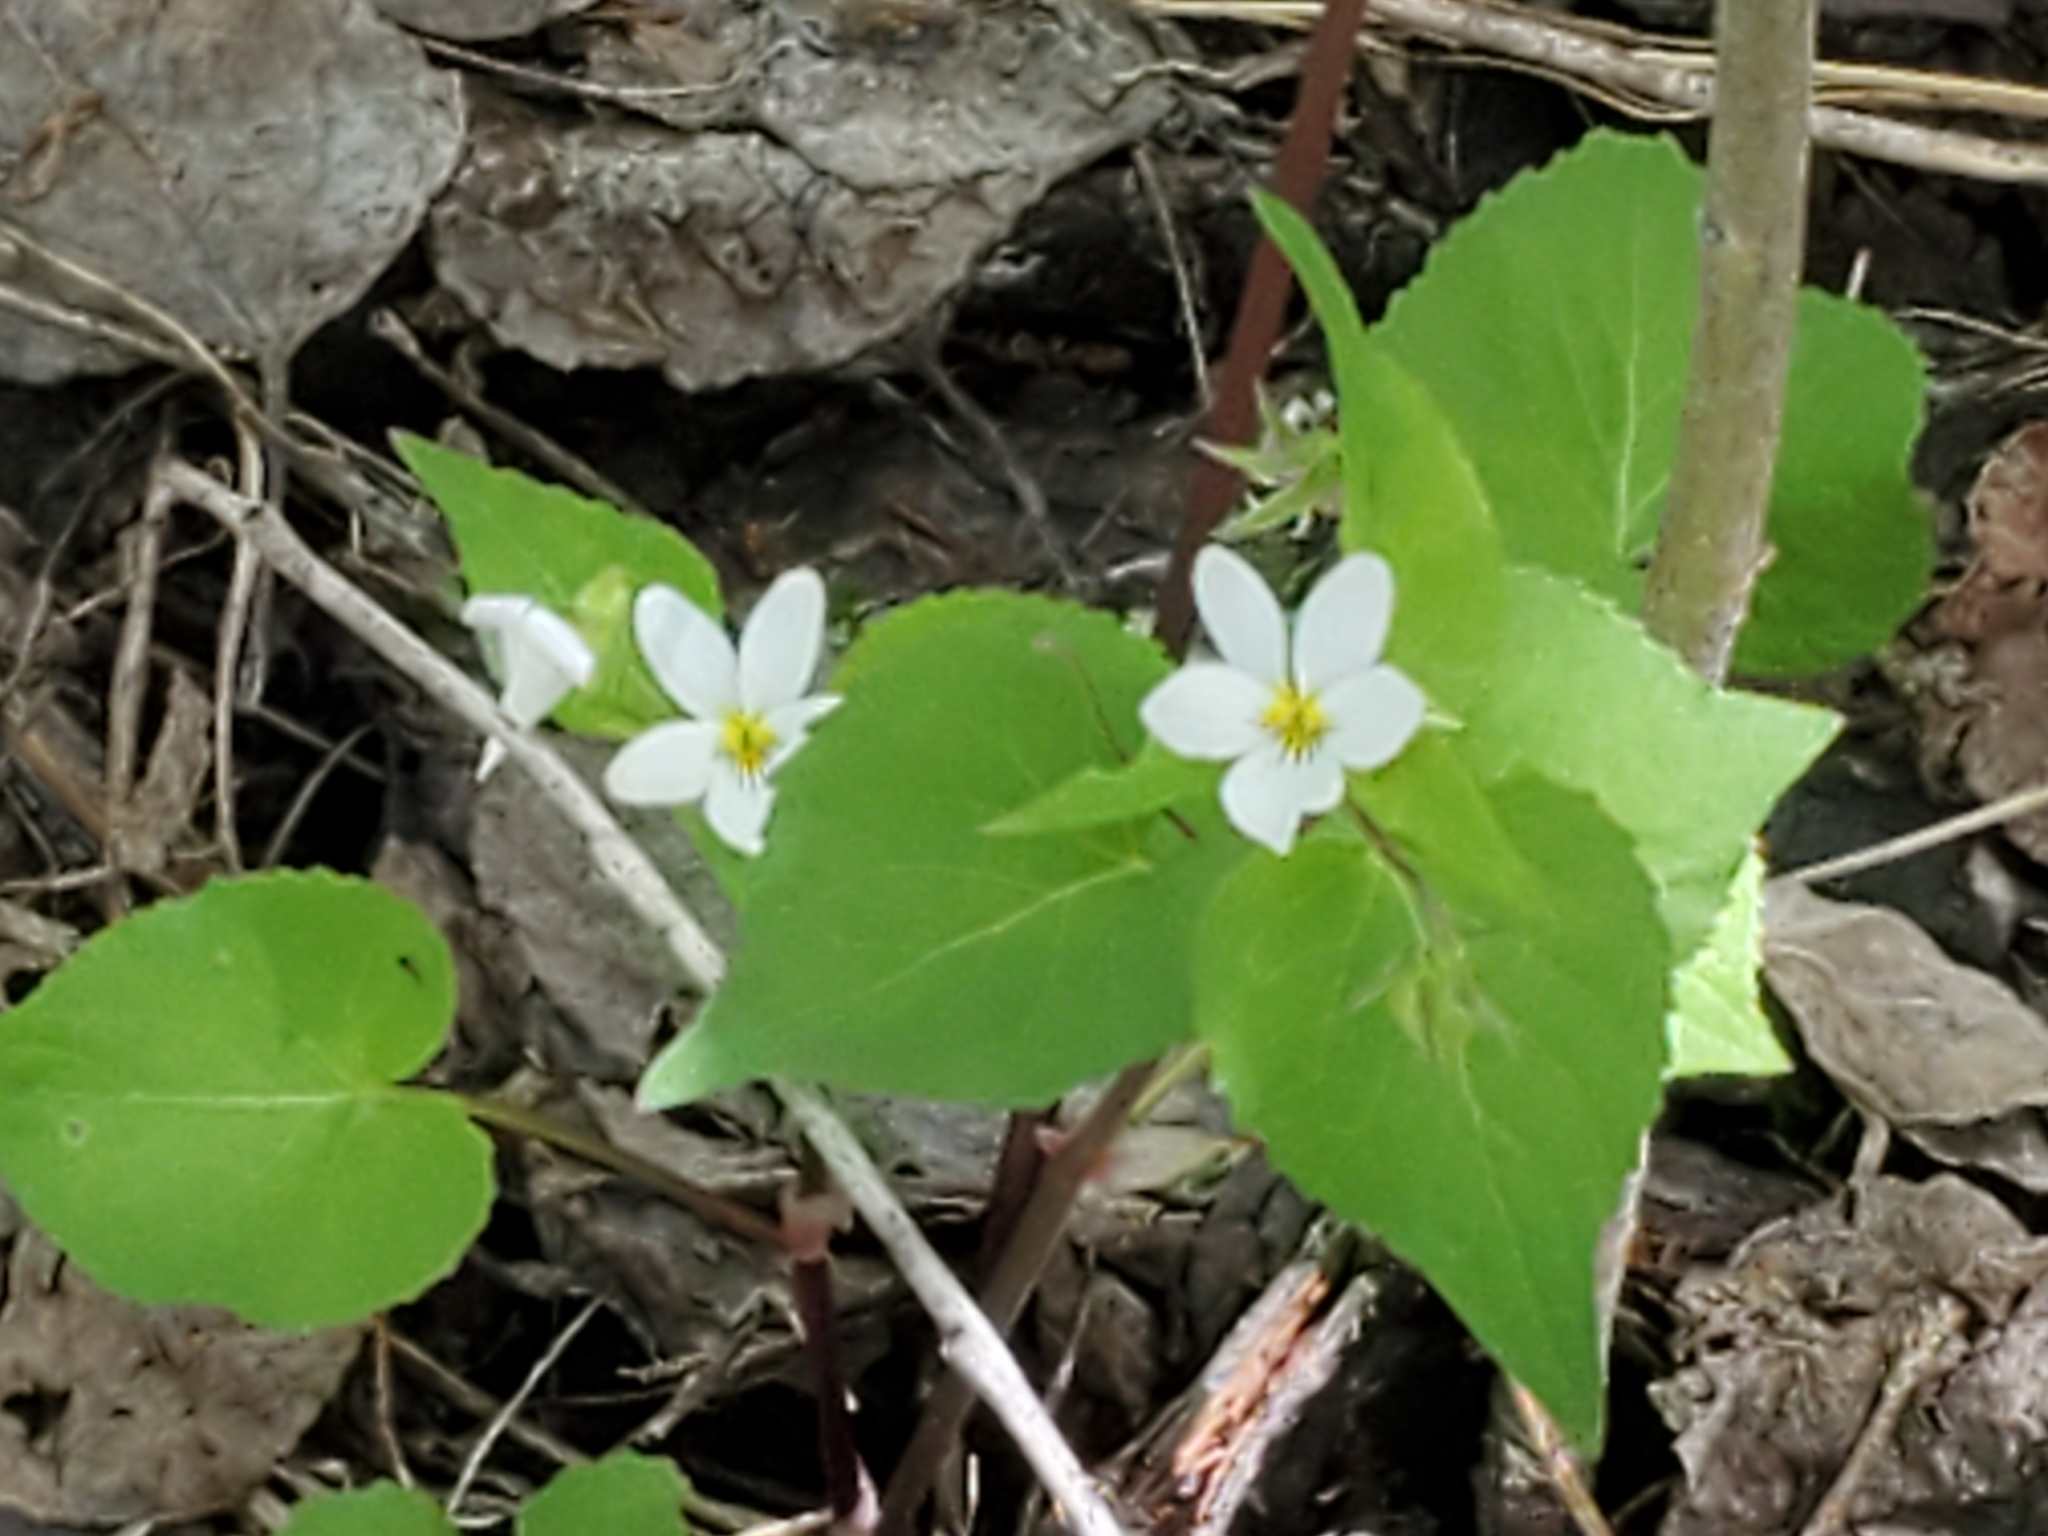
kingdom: Plantae
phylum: Tracheophyta
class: Magnoliopsida
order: Malpighiales
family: Violaceae
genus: Viola
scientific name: Viola canadensis
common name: Canada violet
